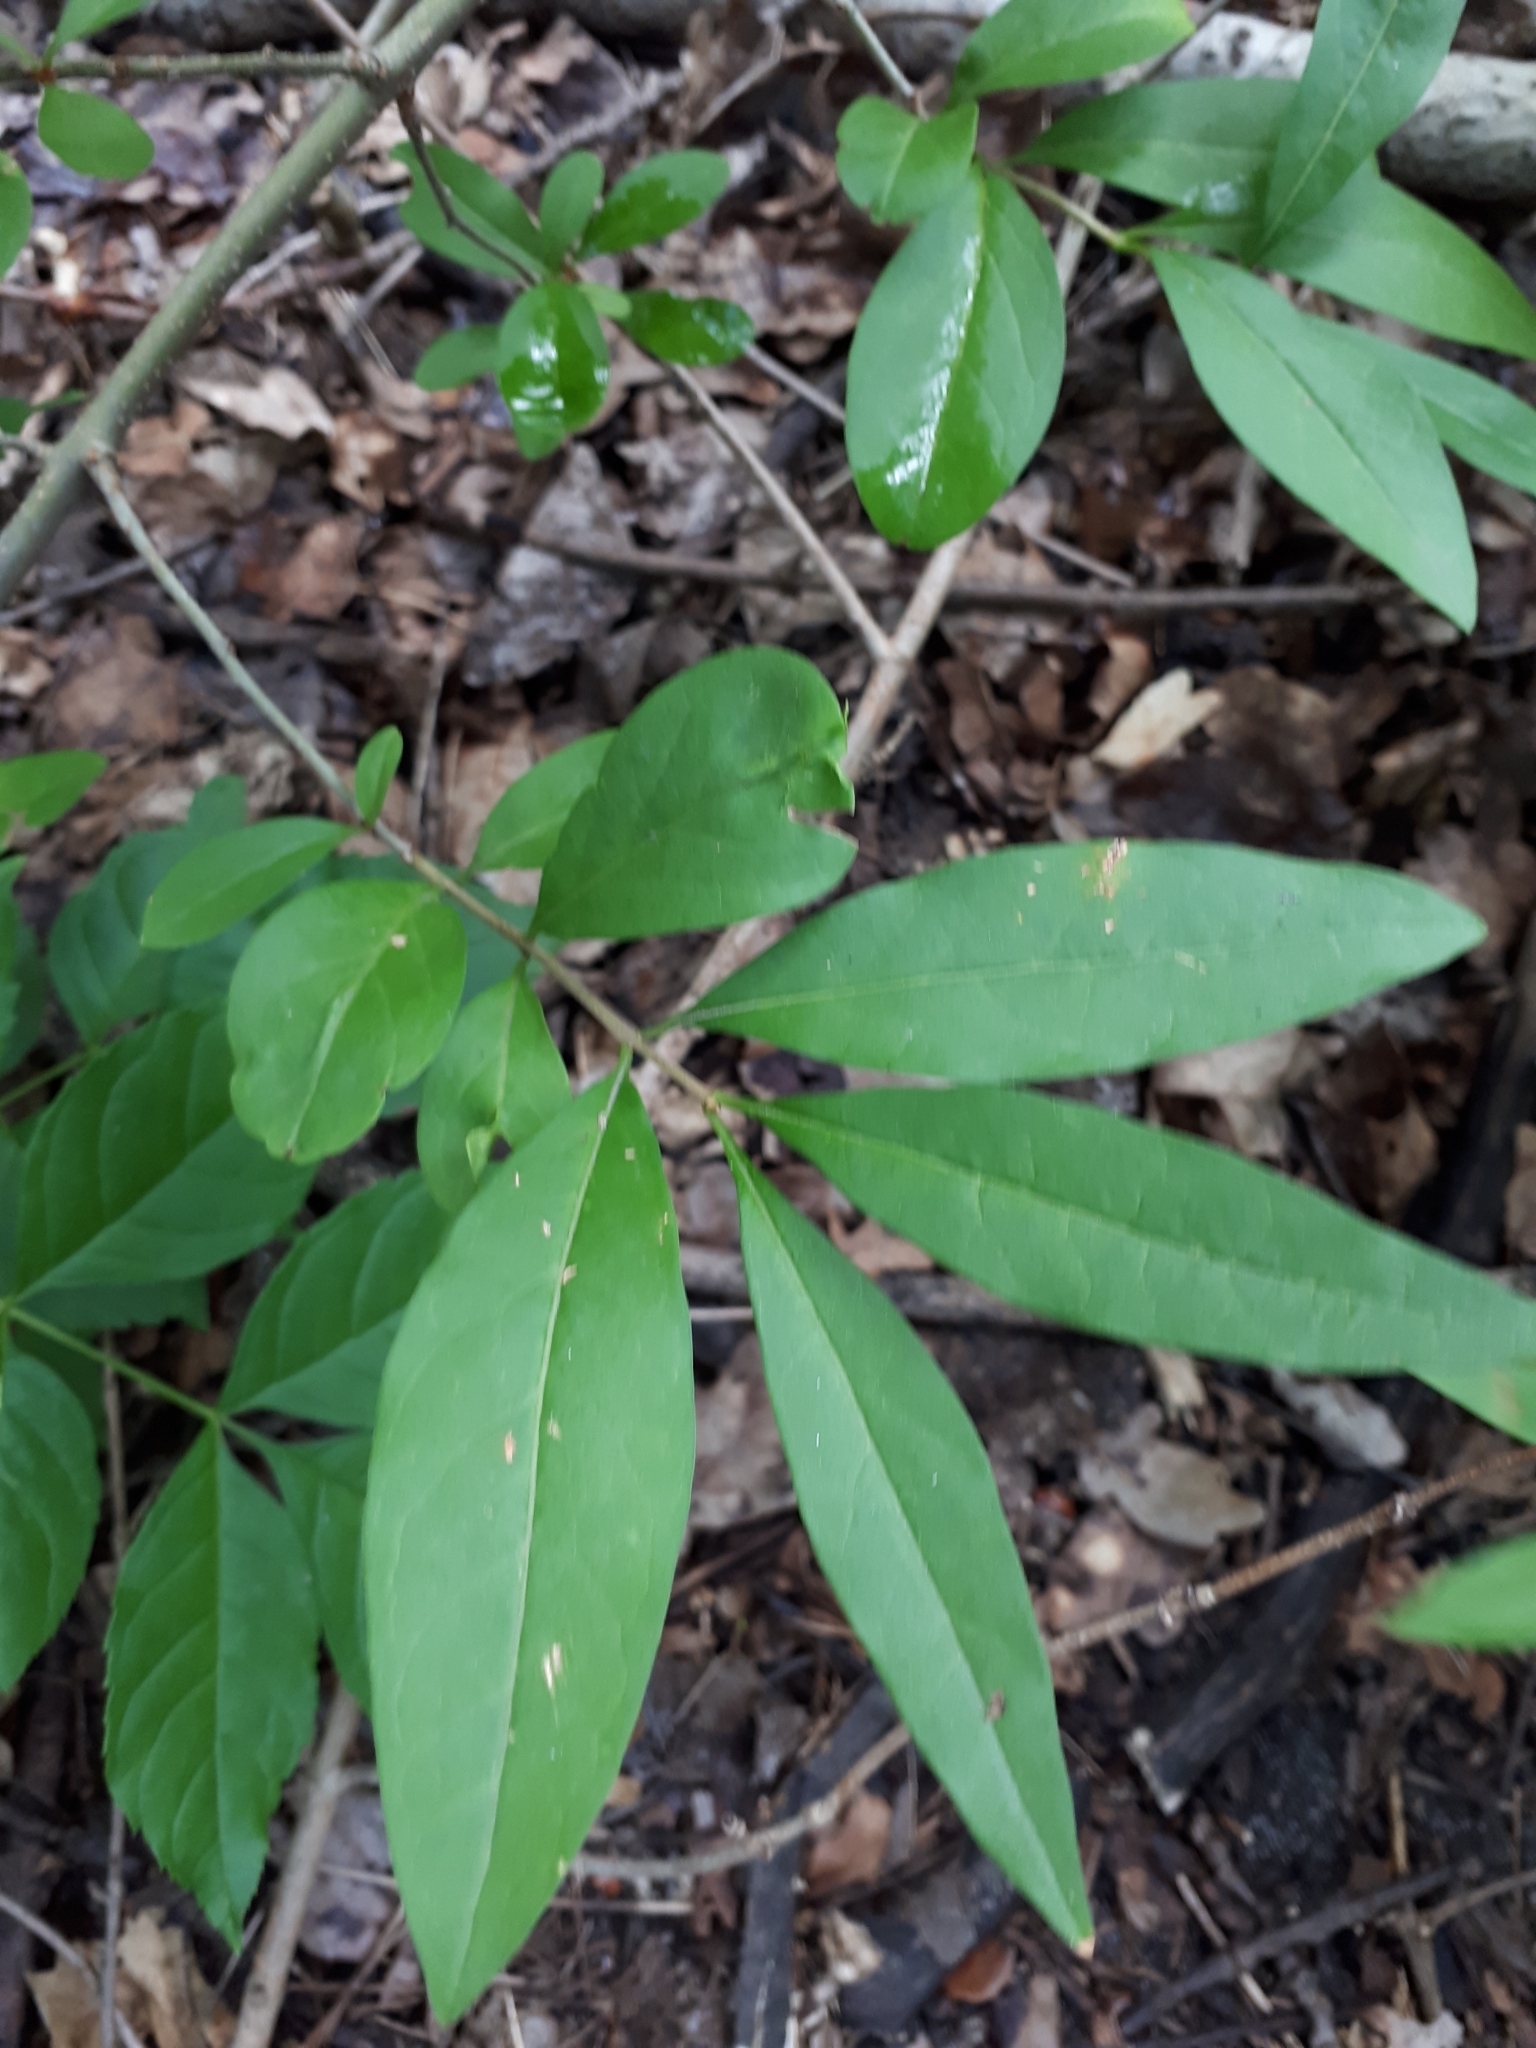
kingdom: Plantae
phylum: Tracheophyta
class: Magnoliopsida
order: Lamiales
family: Oleaceae
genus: Ligustrum
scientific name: Ligustrum vulgare
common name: Wild privet
